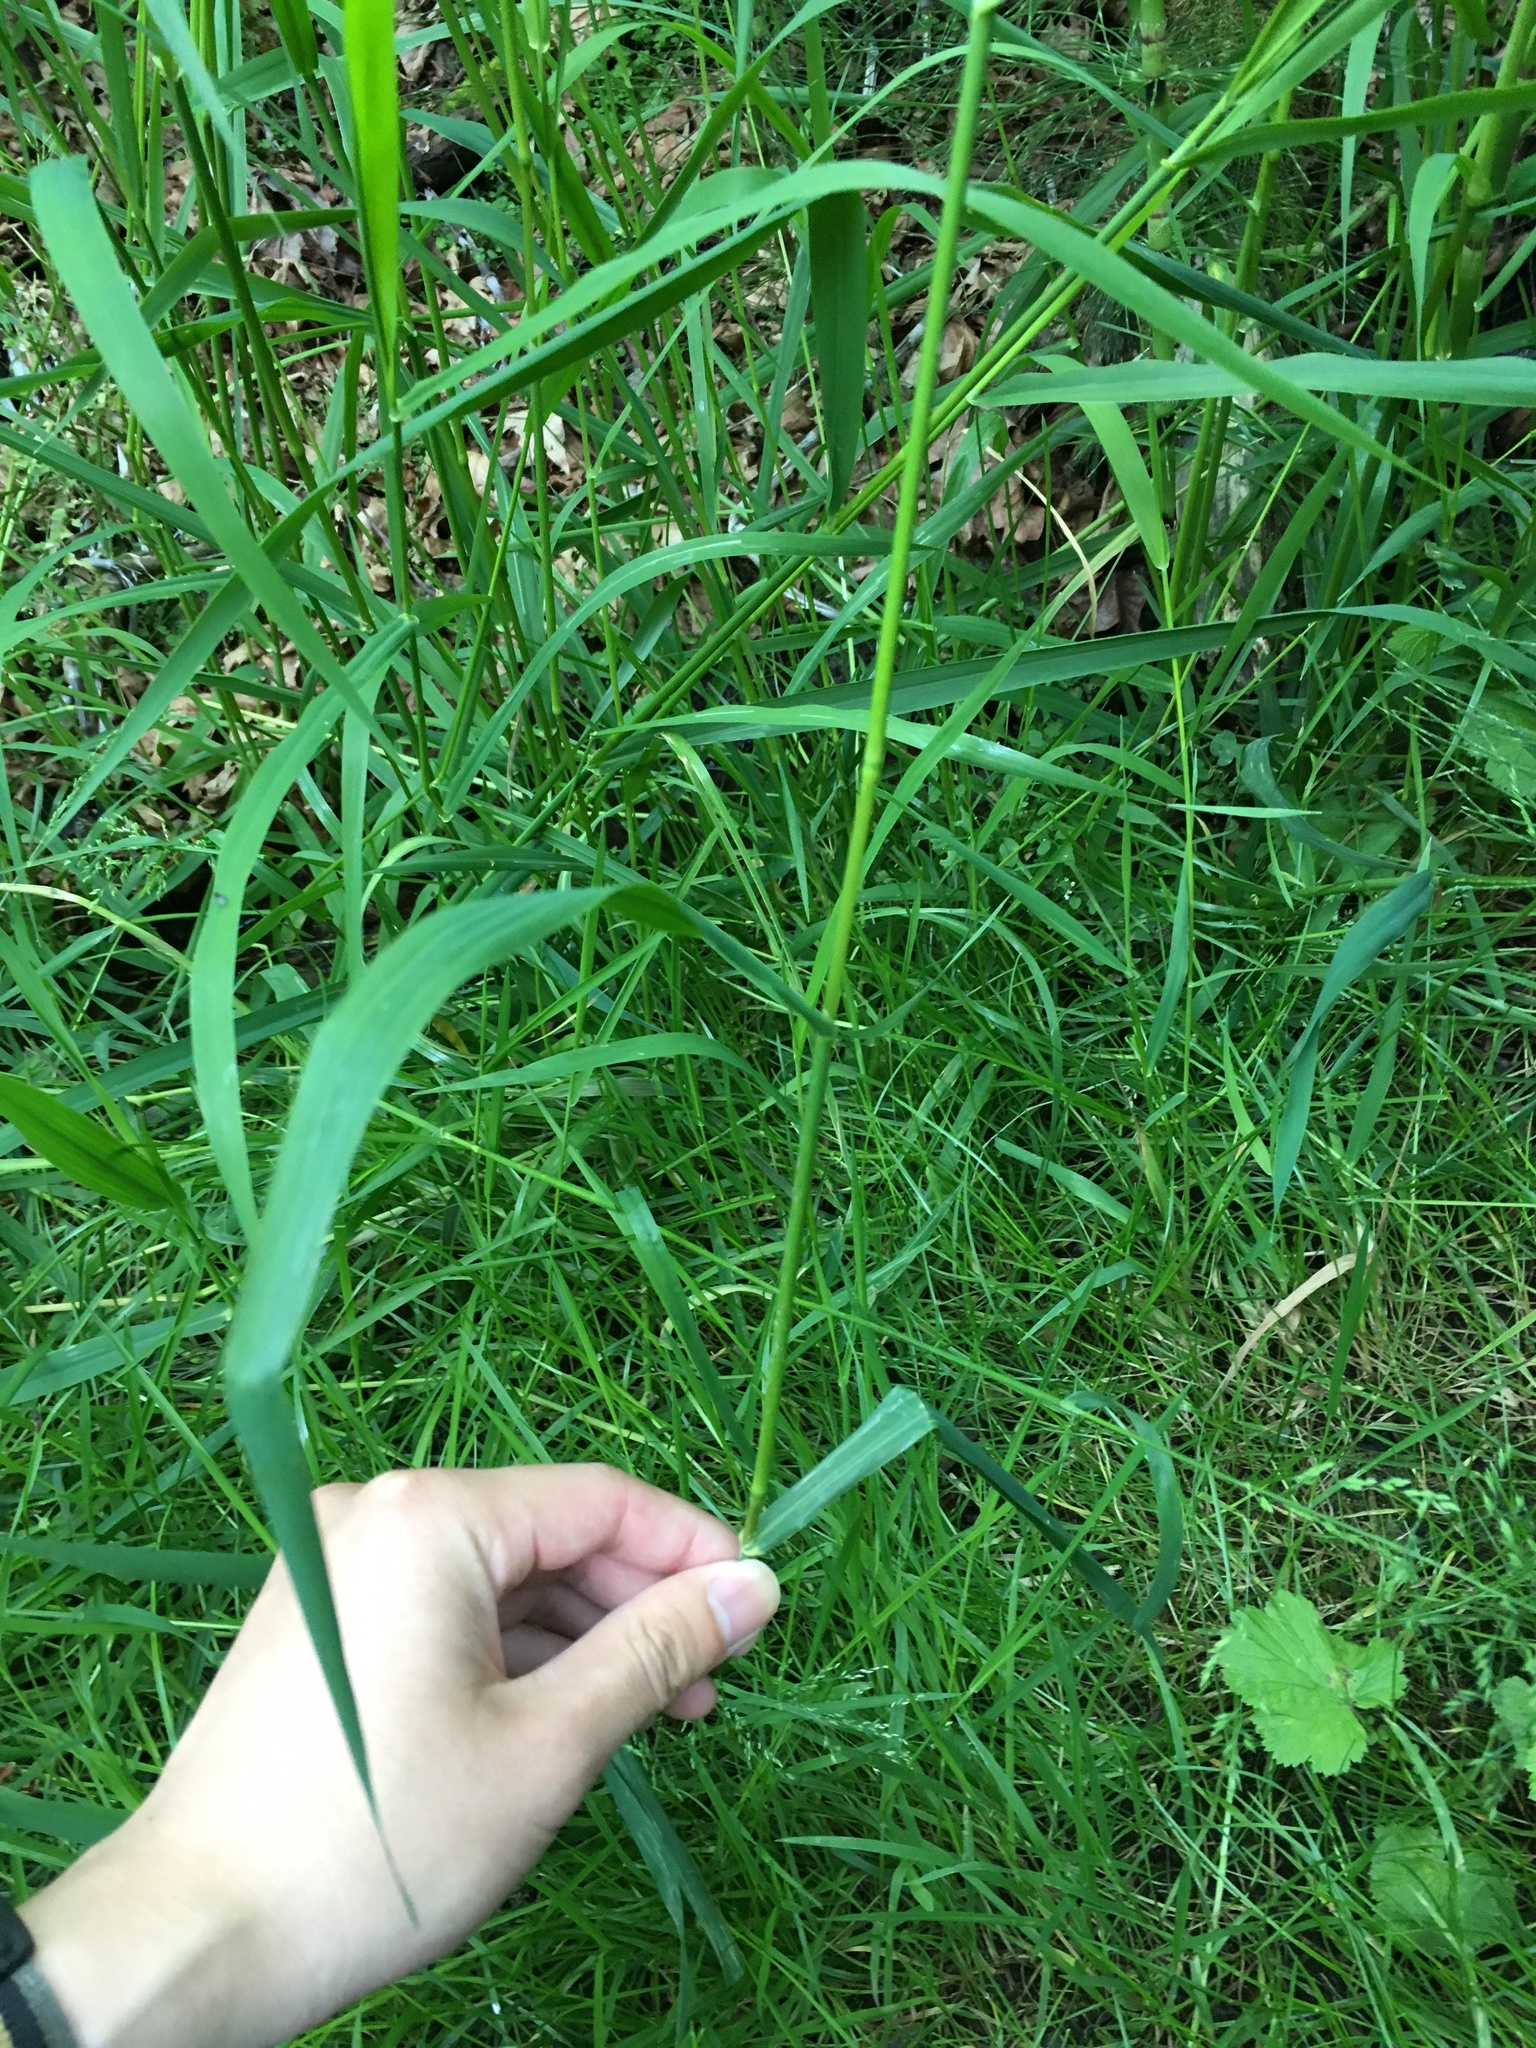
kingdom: Plantae
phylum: Tracheophyta
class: Liliopsida
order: Poales
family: Poaceae
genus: Phalaris
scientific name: Phalaris arundinacea
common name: Reed canary-grass
